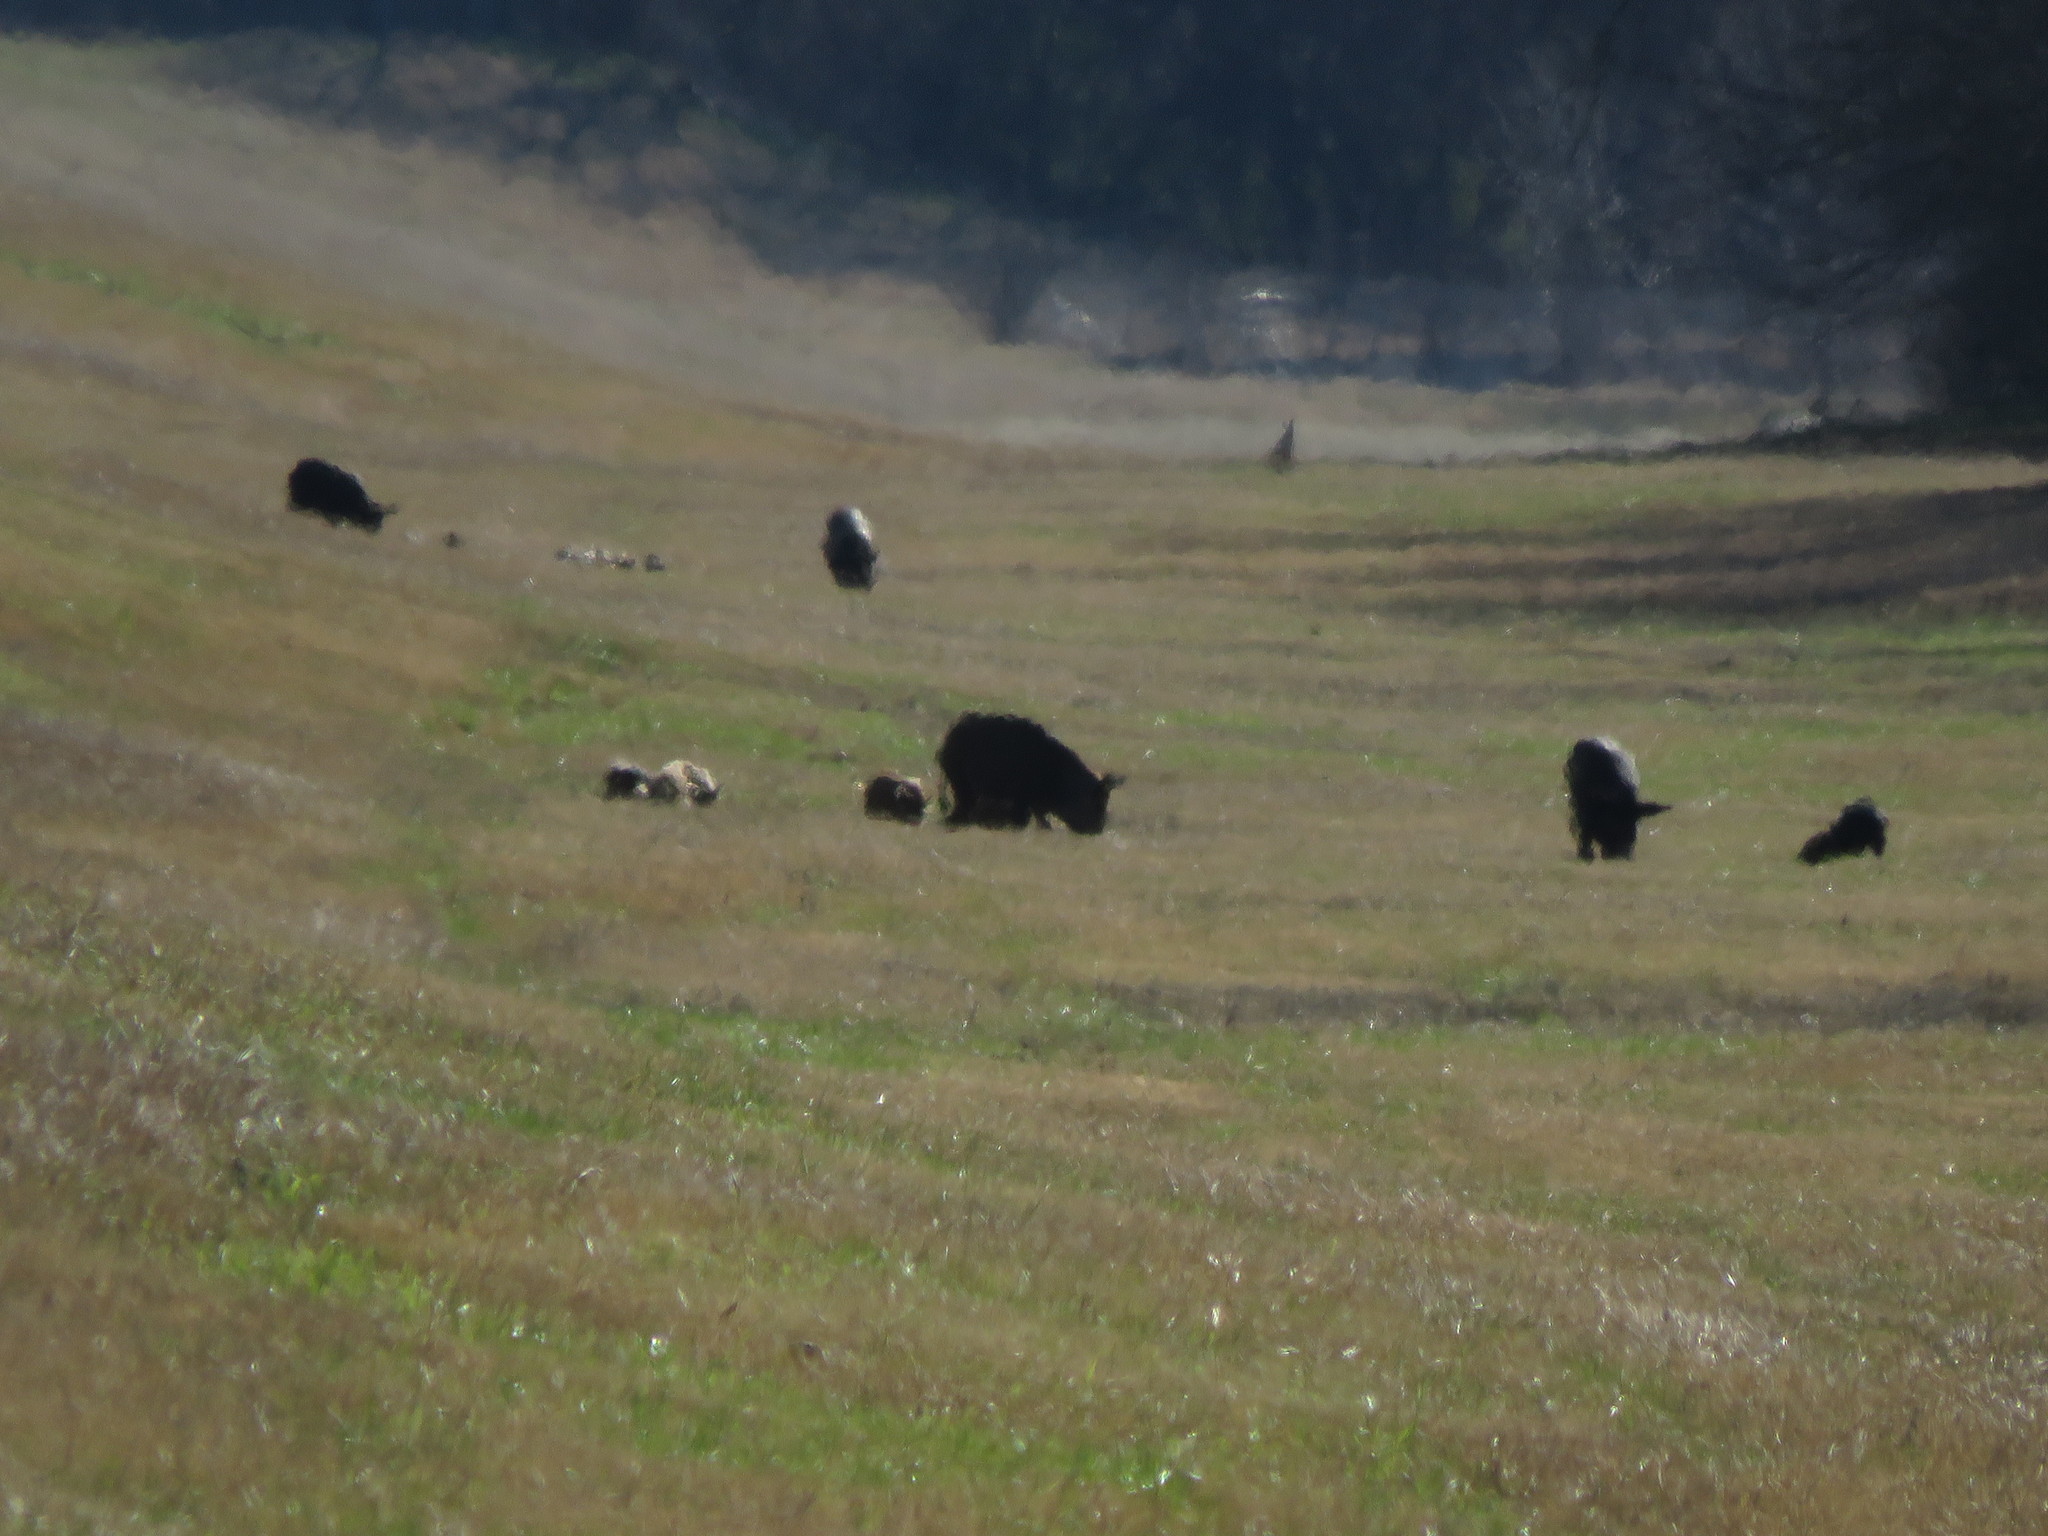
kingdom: Animalia
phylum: Chordata
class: Mammalia
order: Artiodactyla
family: Suidae
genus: Sus
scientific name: Sus scrofa
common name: Wild boar
